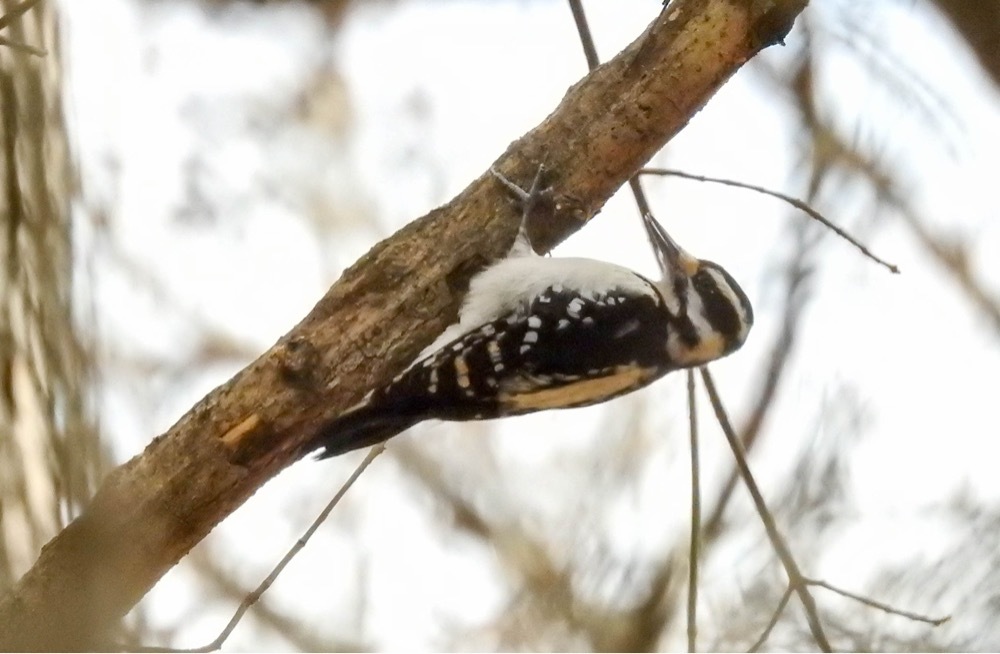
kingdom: Animalia
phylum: Chordata
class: Aves
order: Piciformes
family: Picidae
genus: Leuconotopicus
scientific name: Leuconotopicus villosus
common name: Hairy woodpecker
